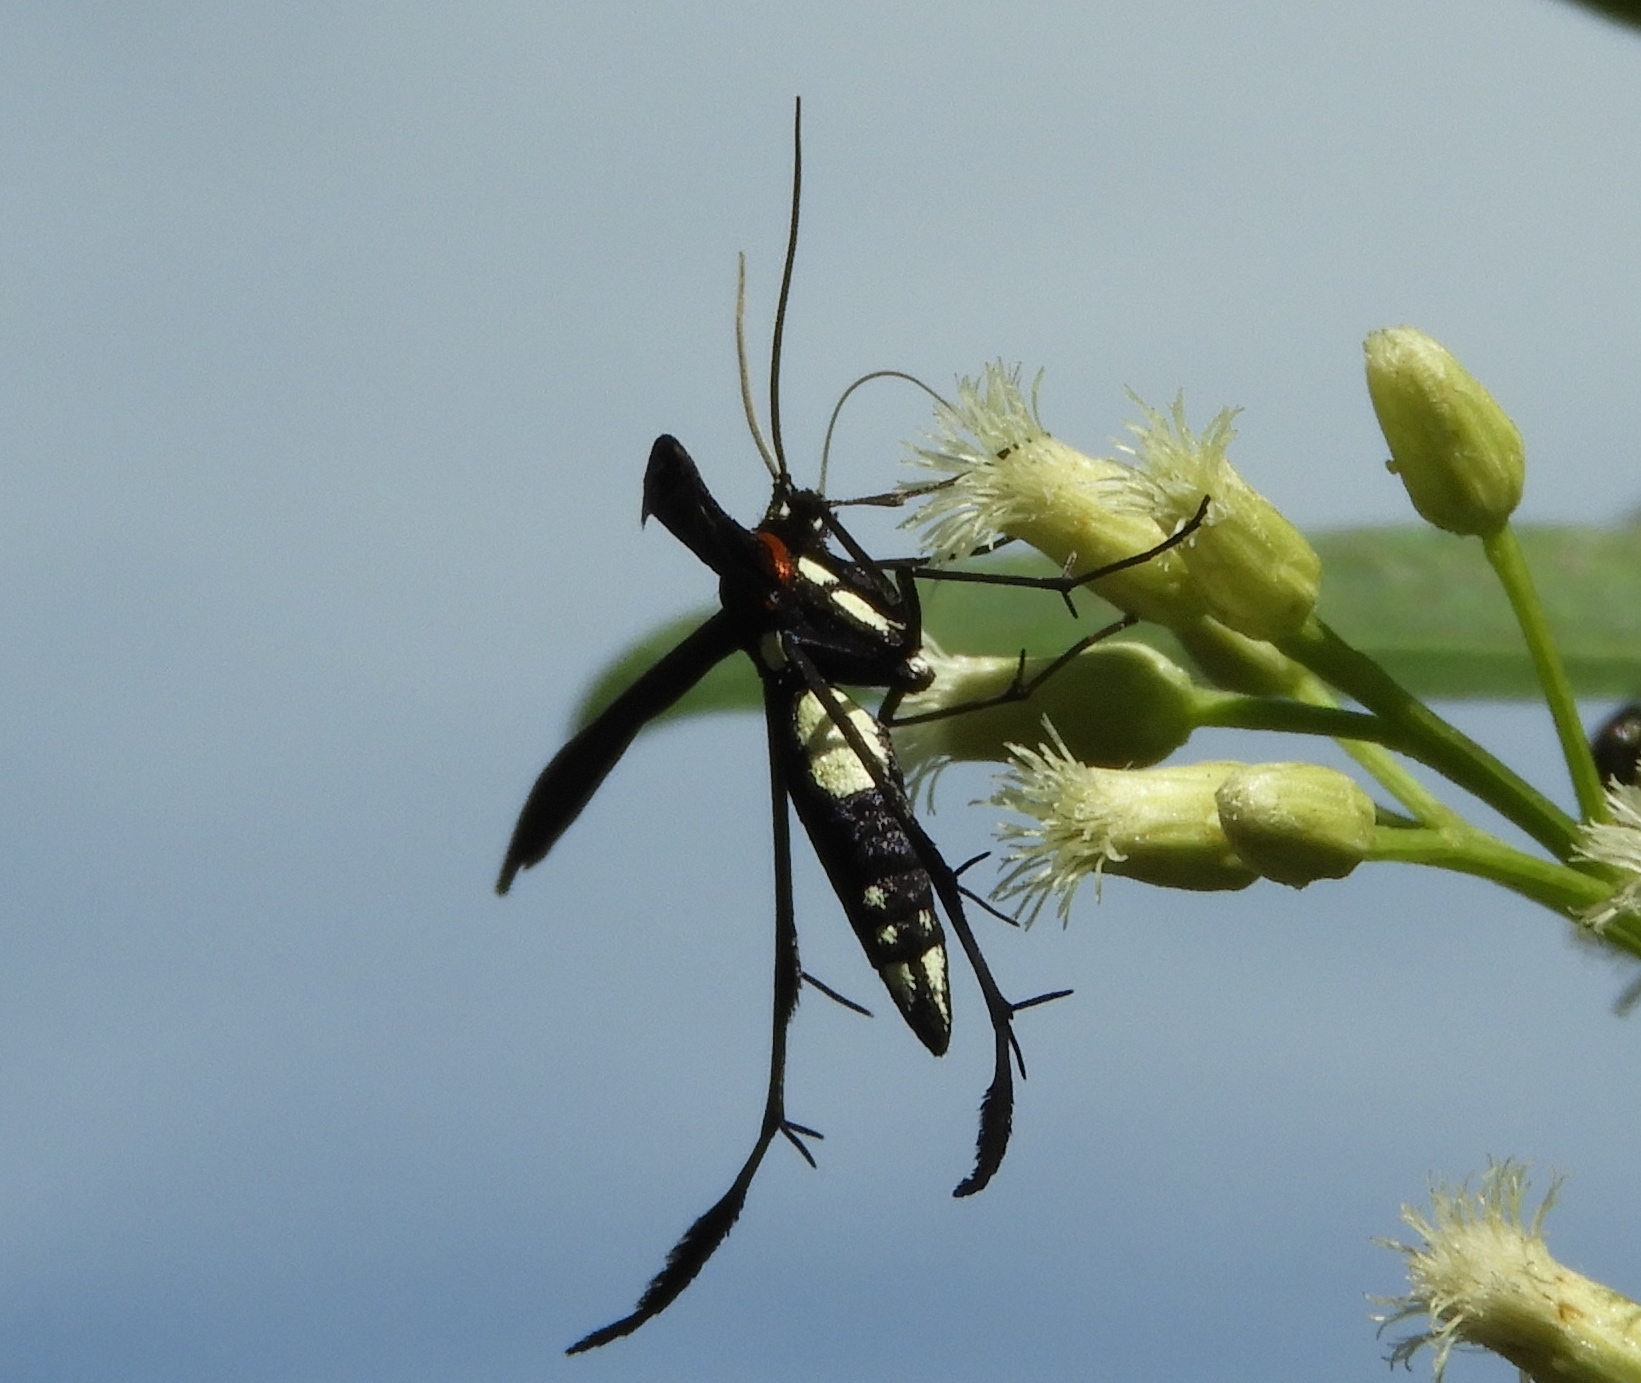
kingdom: Animalia
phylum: Arthropoda
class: Insecta
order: Lepidoptera
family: Pterophoridae
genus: Hellinsia
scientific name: Hellinsia chamelai
